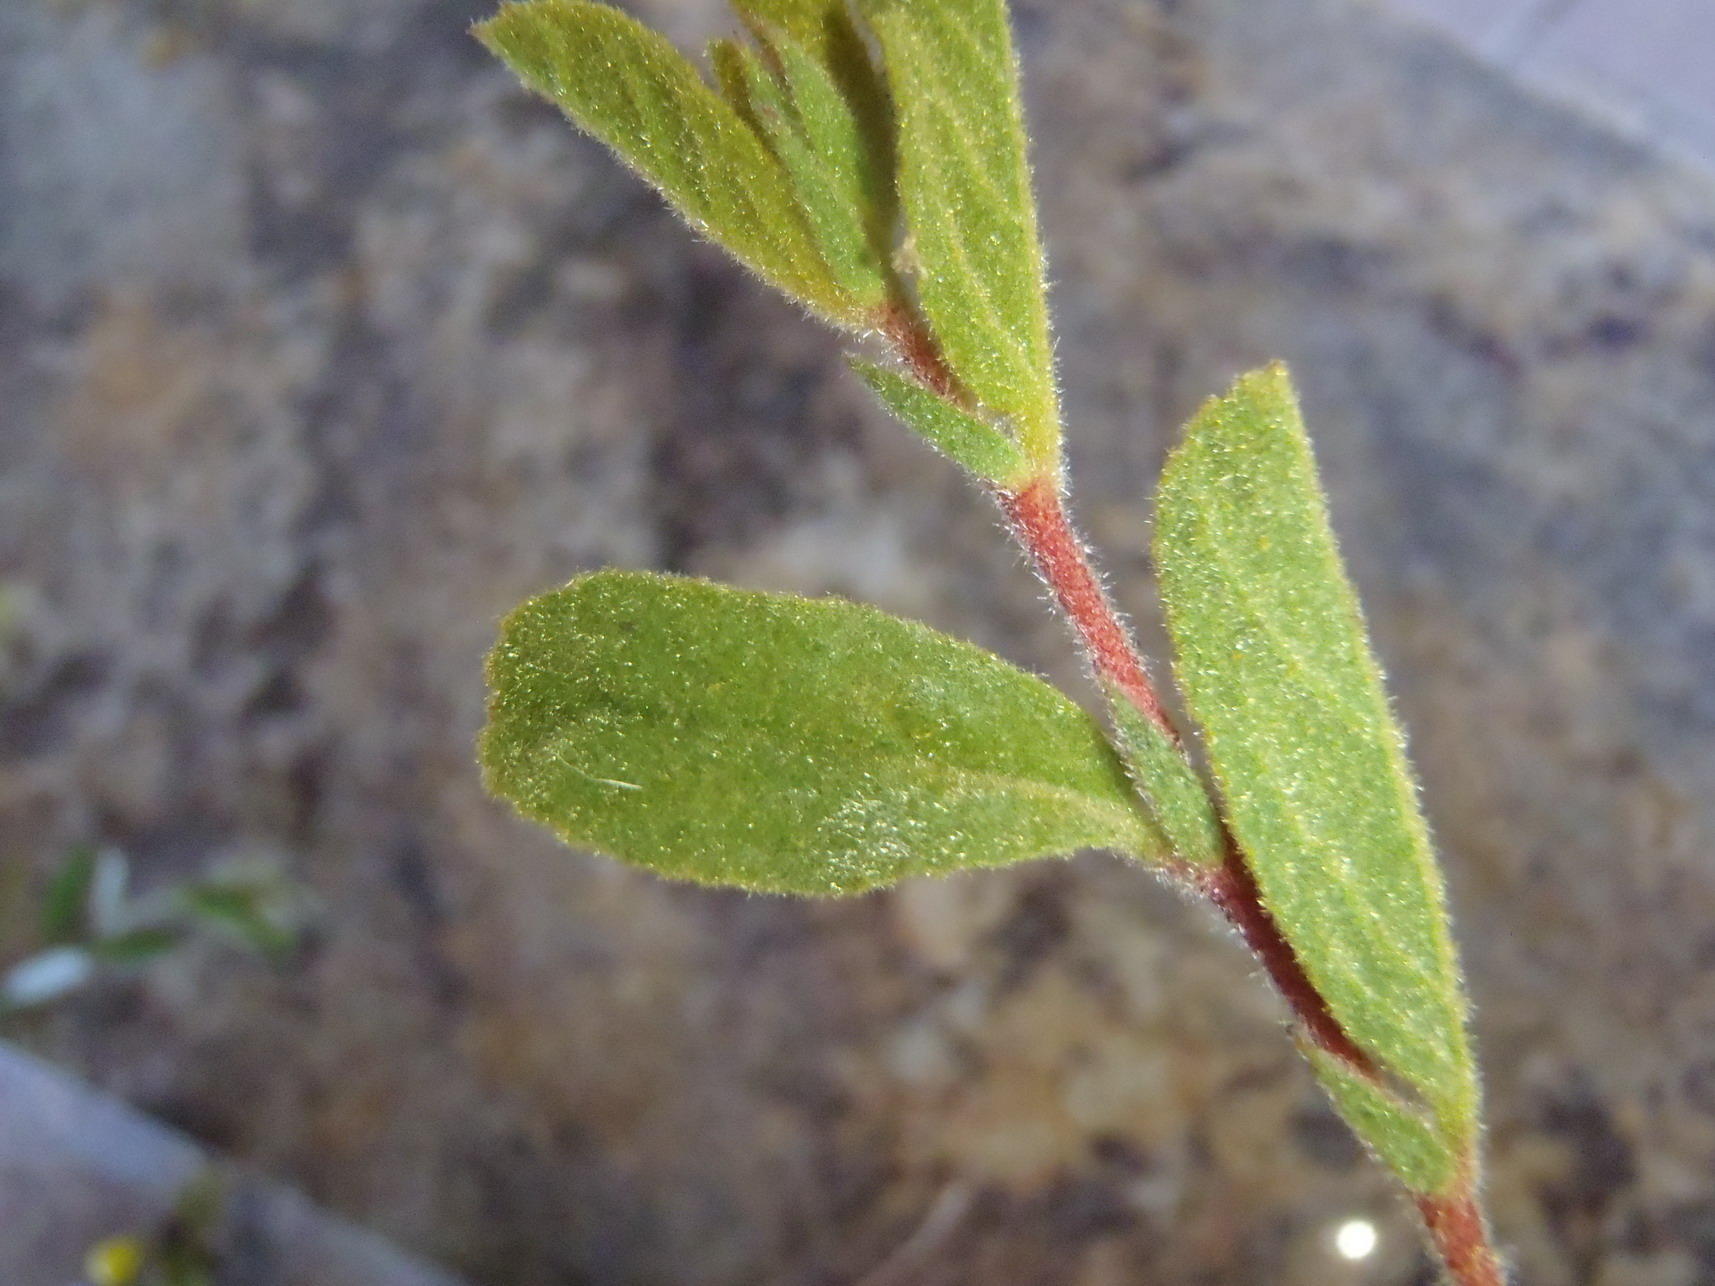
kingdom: Plantae
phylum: Tracheophyta
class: Magnoliopsida
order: Malvales
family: Malvaceae
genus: Hermannia
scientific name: Hermannia salviifolia
